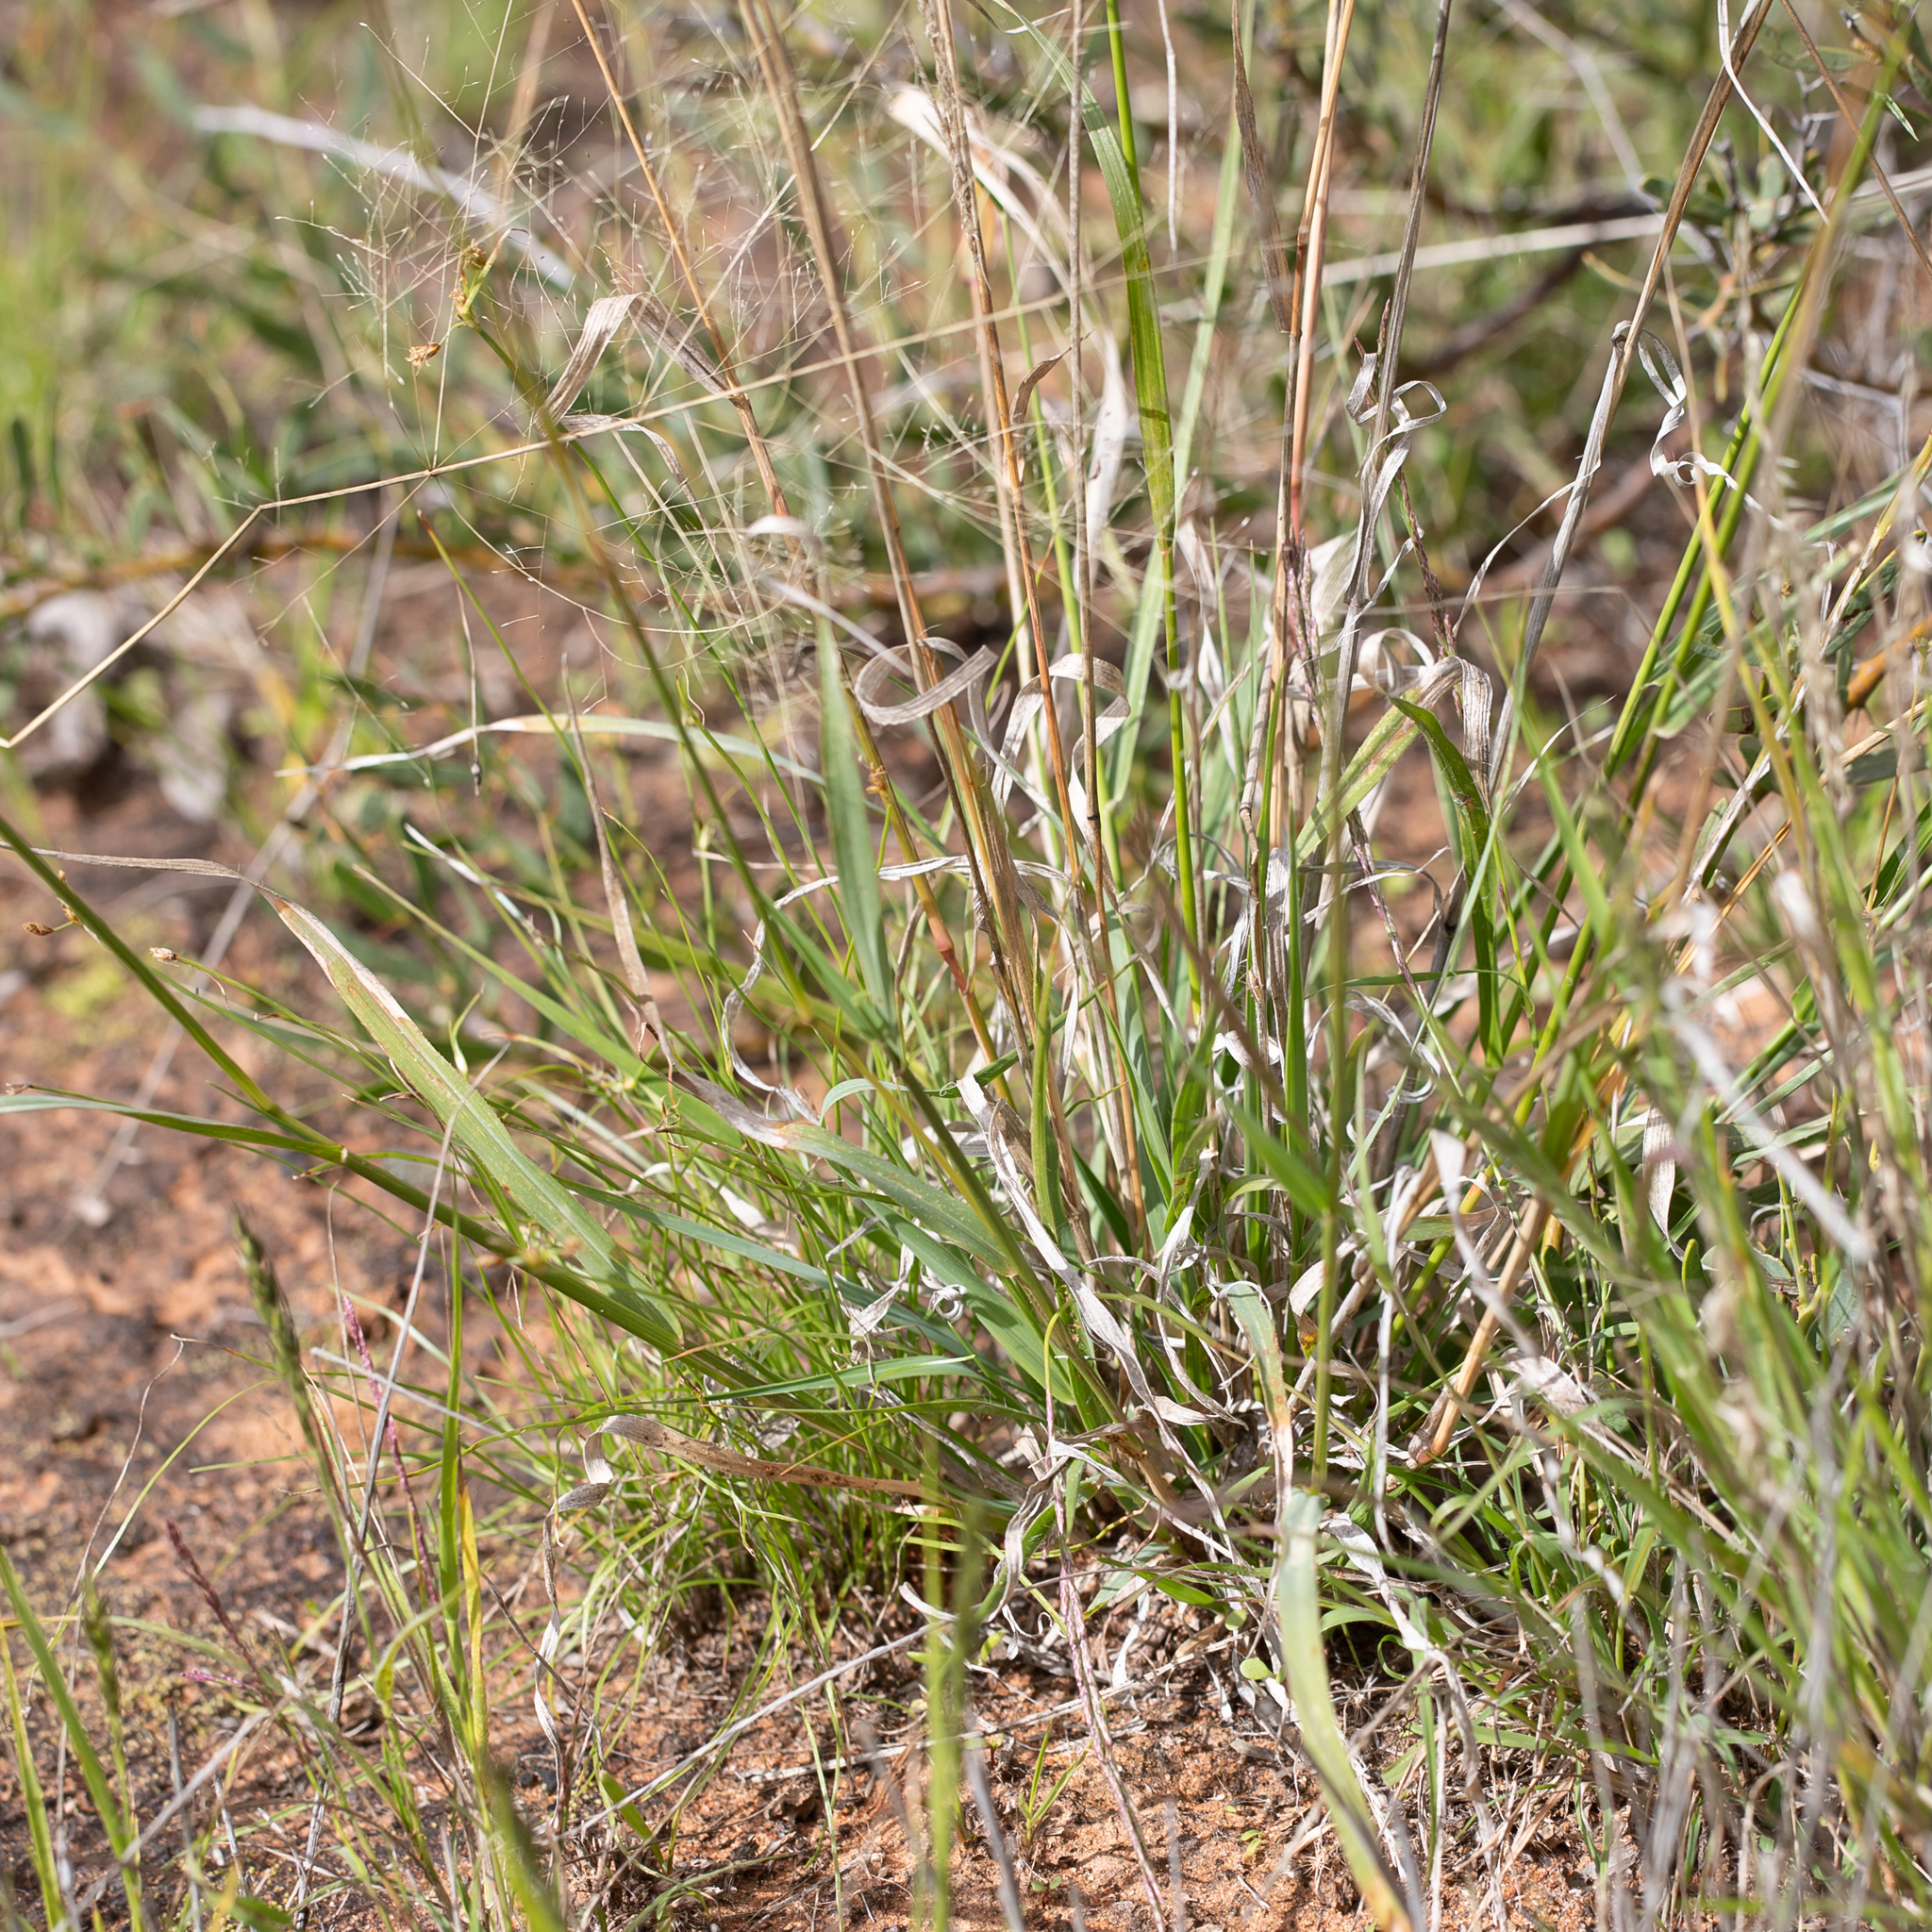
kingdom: Plantae
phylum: Tracheophyta
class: Liliopsida
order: Poales
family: Poaceae
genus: Sporobolus
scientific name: Sporobolus actinocladus
